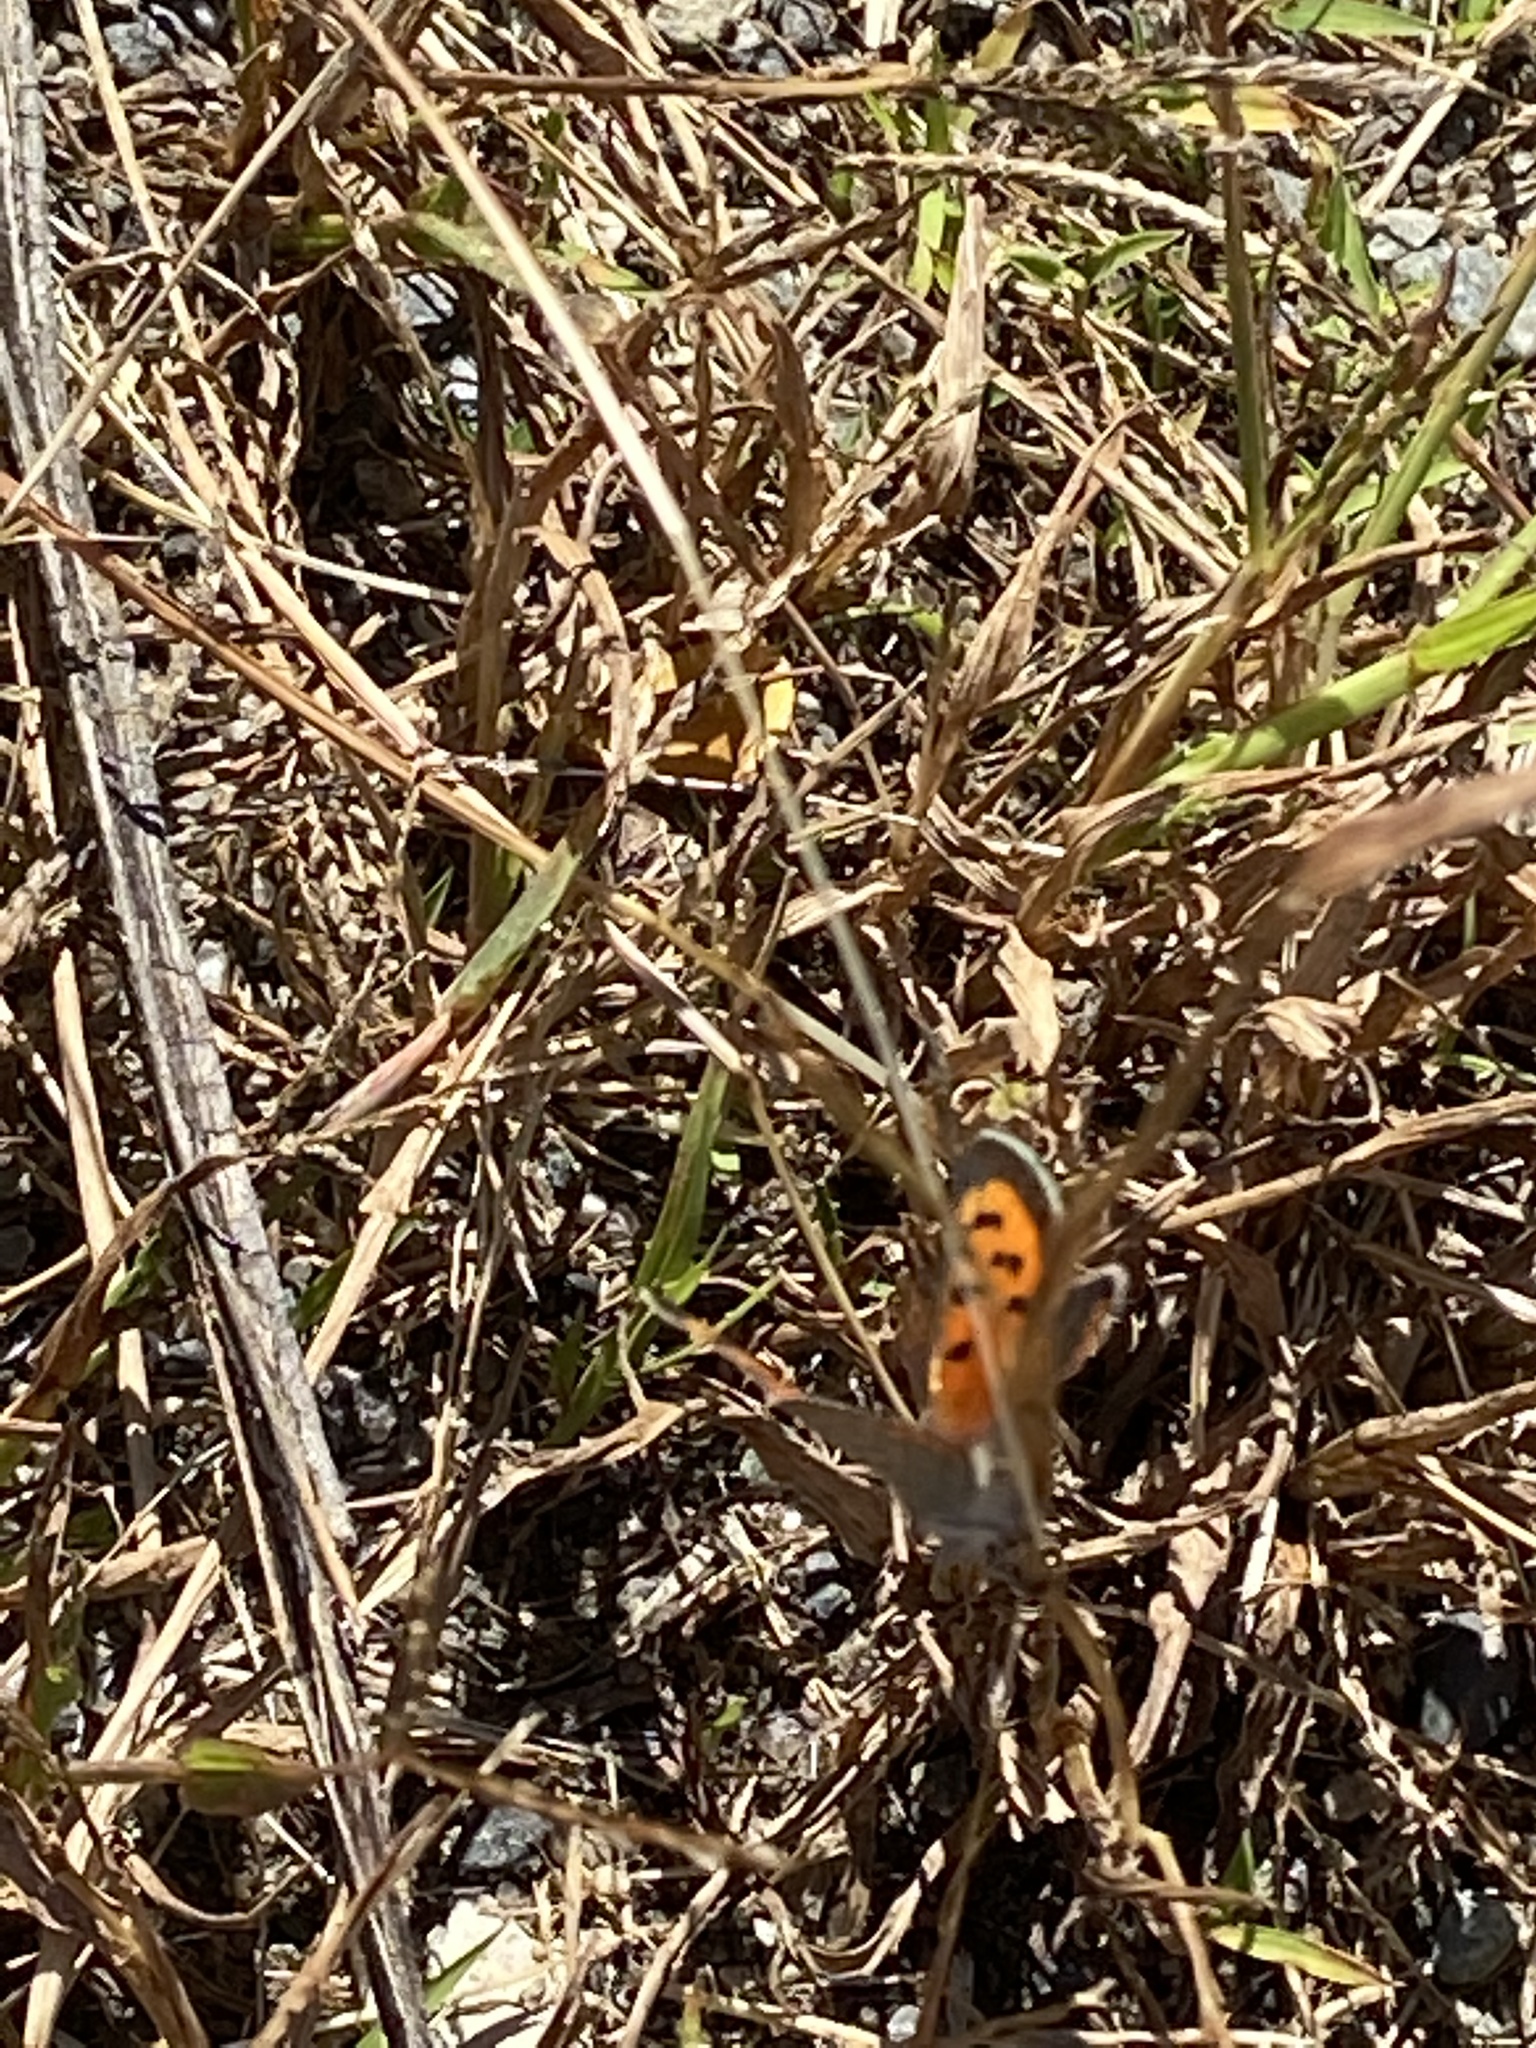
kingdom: Animalia
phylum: Arthropoda
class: Insecta
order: Lepidoptera
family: Lycaenidae
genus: Lycaena
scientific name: Lycaena hypophlaeas
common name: American copper
